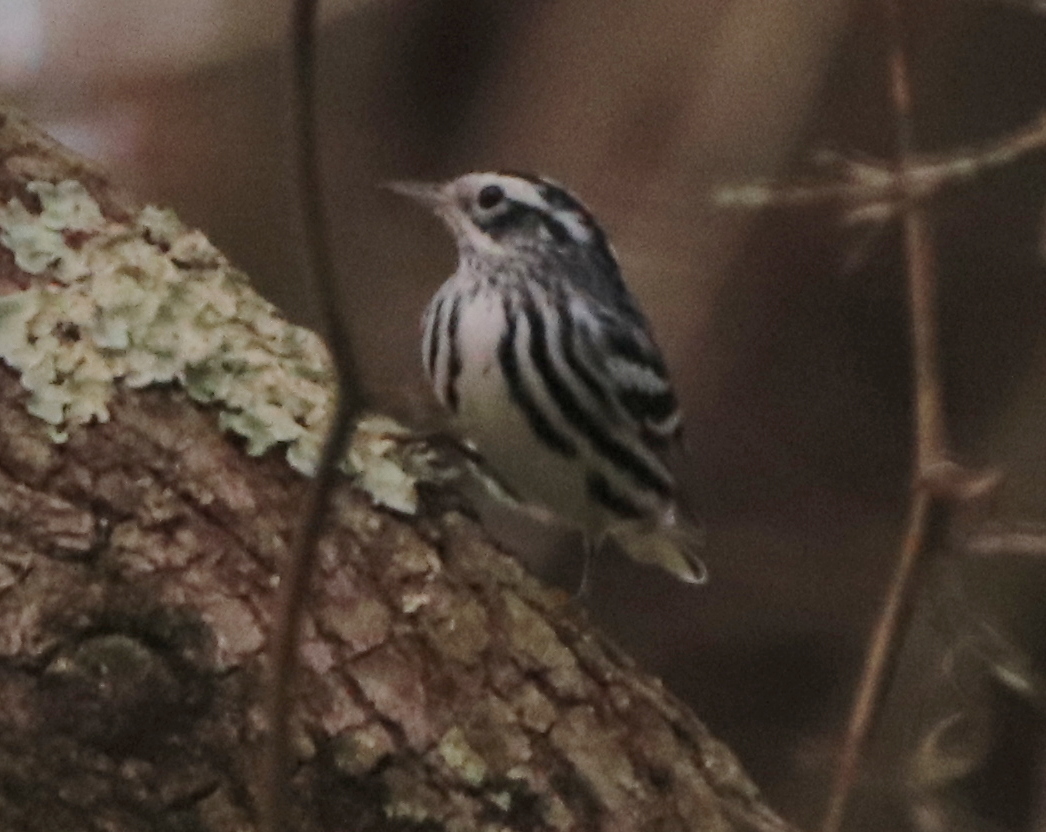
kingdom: Animalia
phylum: Chordata
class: Aves
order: Passeriformes
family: Parulidae
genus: Mniotilta
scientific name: Mniotilta varia
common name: Black-and-white warbler
